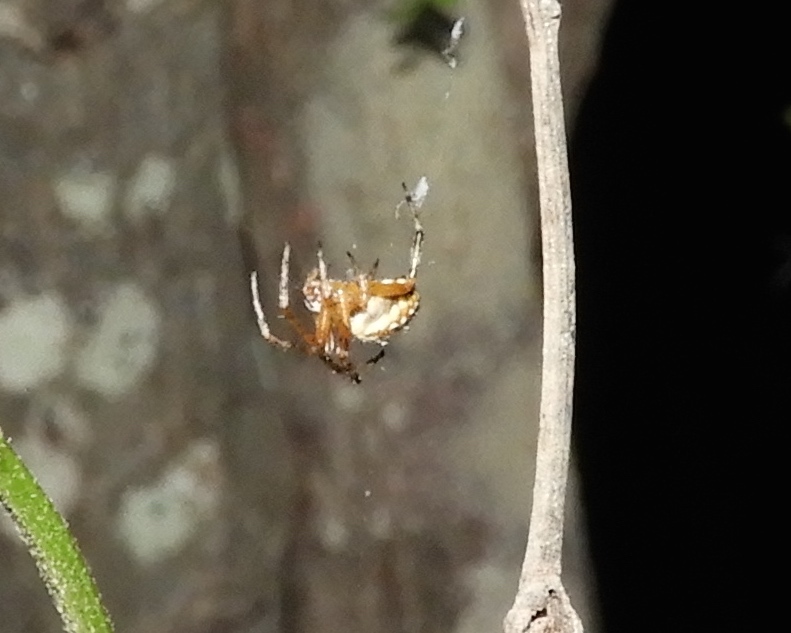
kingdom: Animalia
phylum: Arthropoda
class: Arachnida
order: Araneae
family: Araneidae
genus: Neoscona
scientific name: Neoscona oaxacensis
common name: Orb weavers
